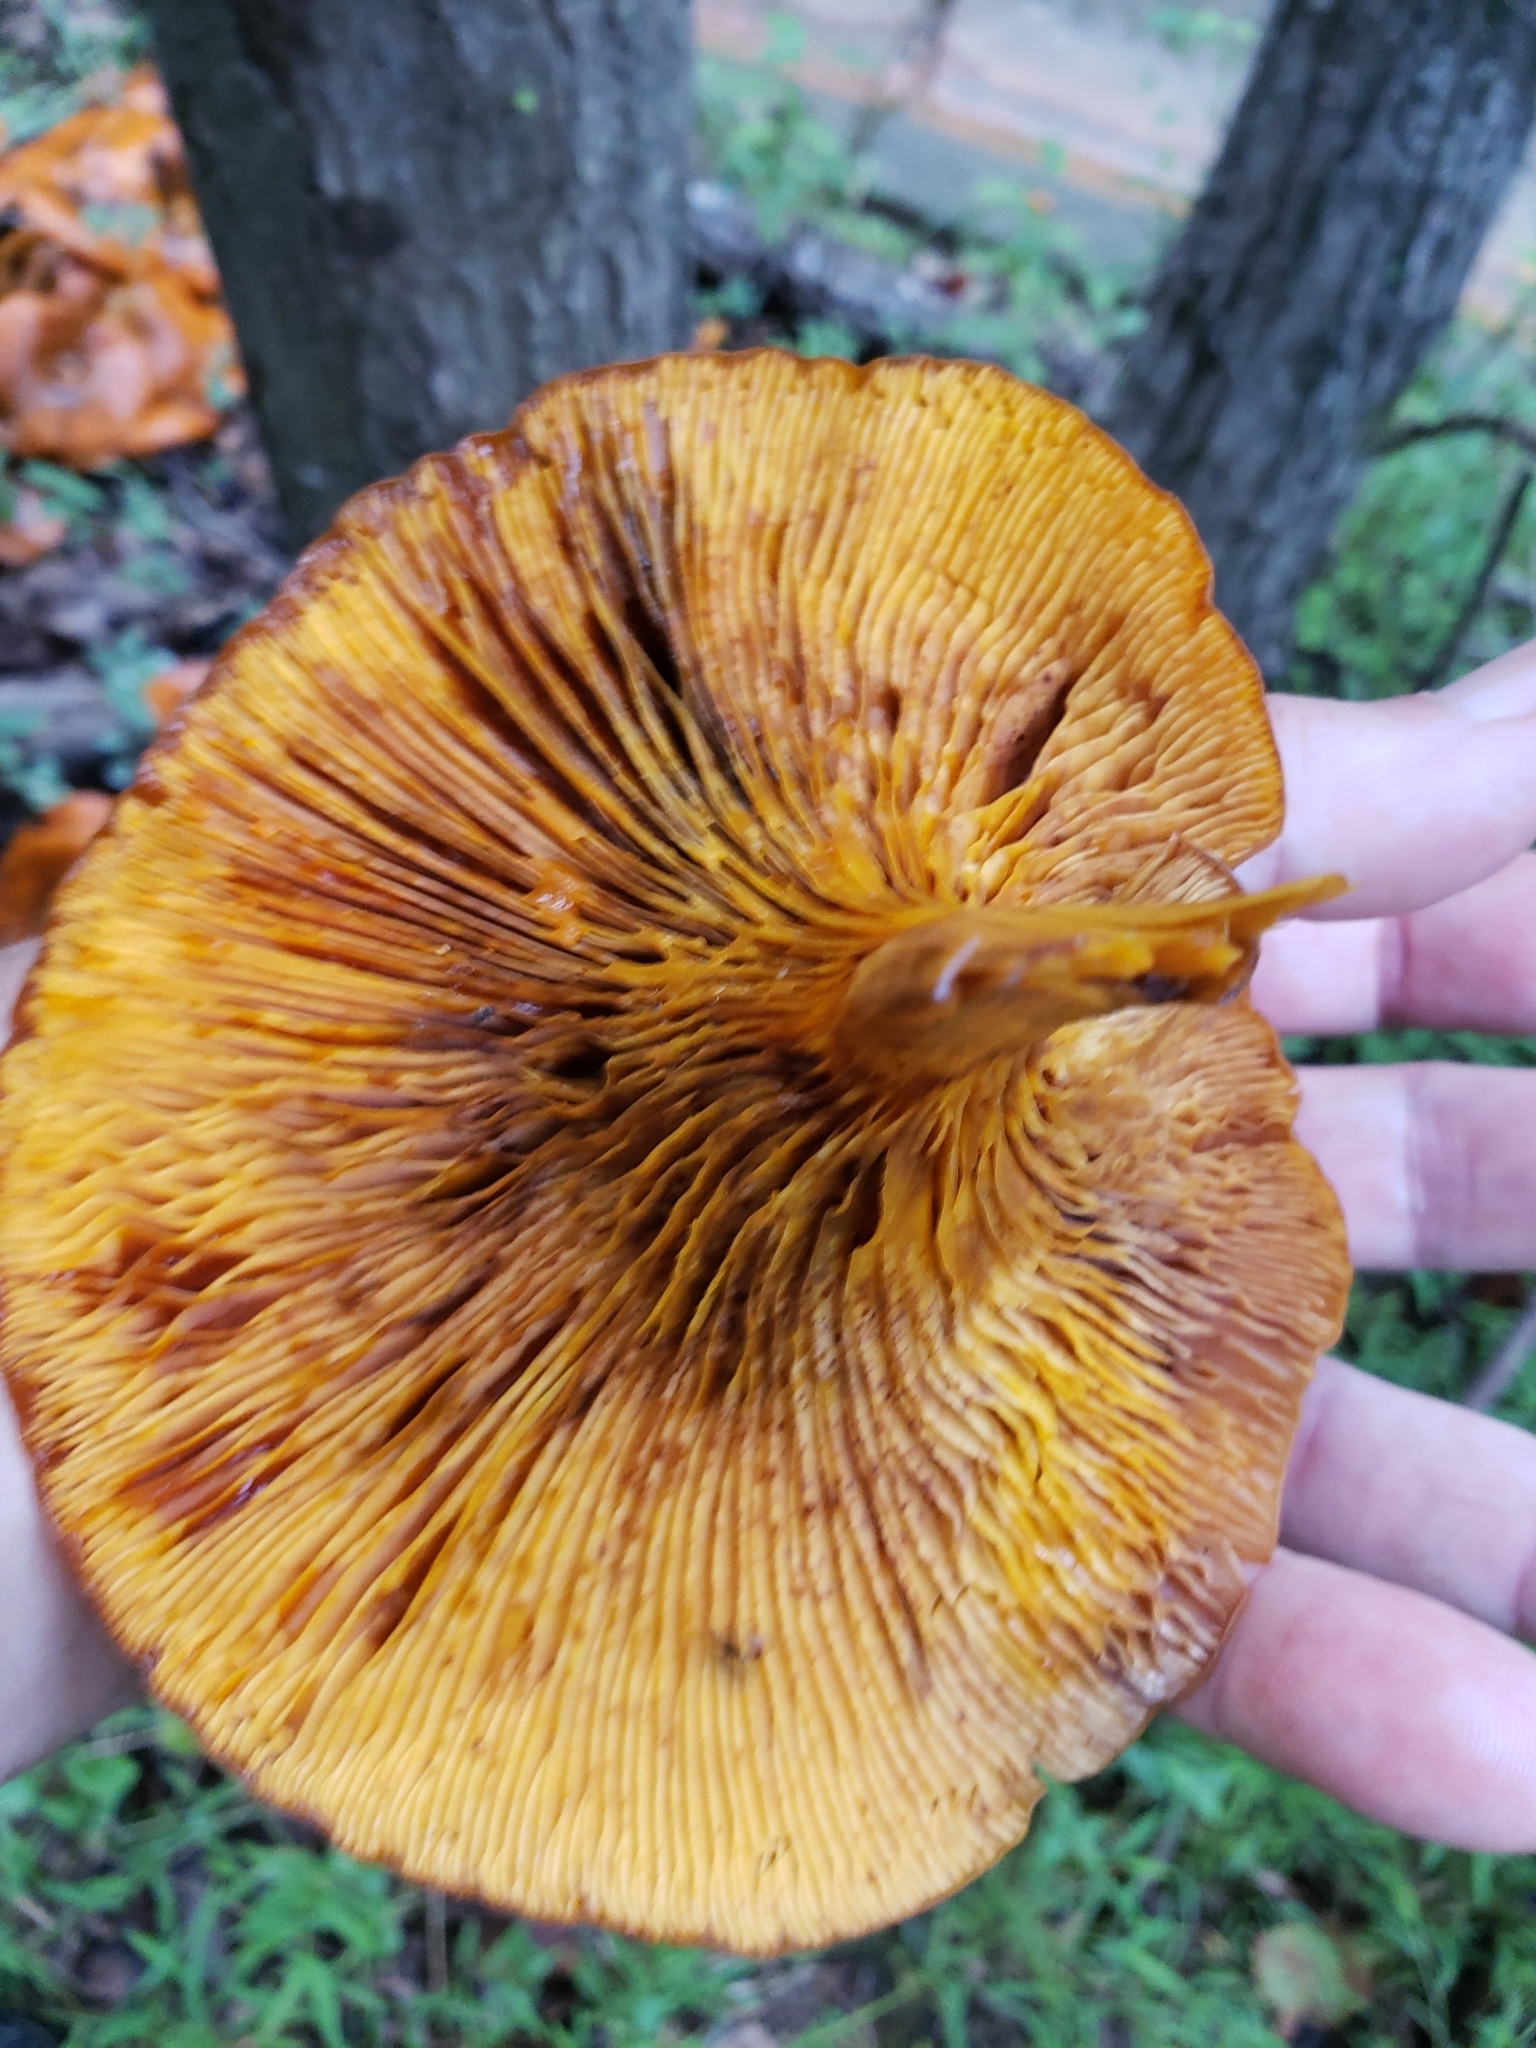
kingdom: Fungi
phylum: Basidiomycota
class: Agaricomycetes
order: Agaricales
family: Omphalotaceae
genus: Omphalotus
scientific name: Omphalotus illudens
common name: Jack o lantern
